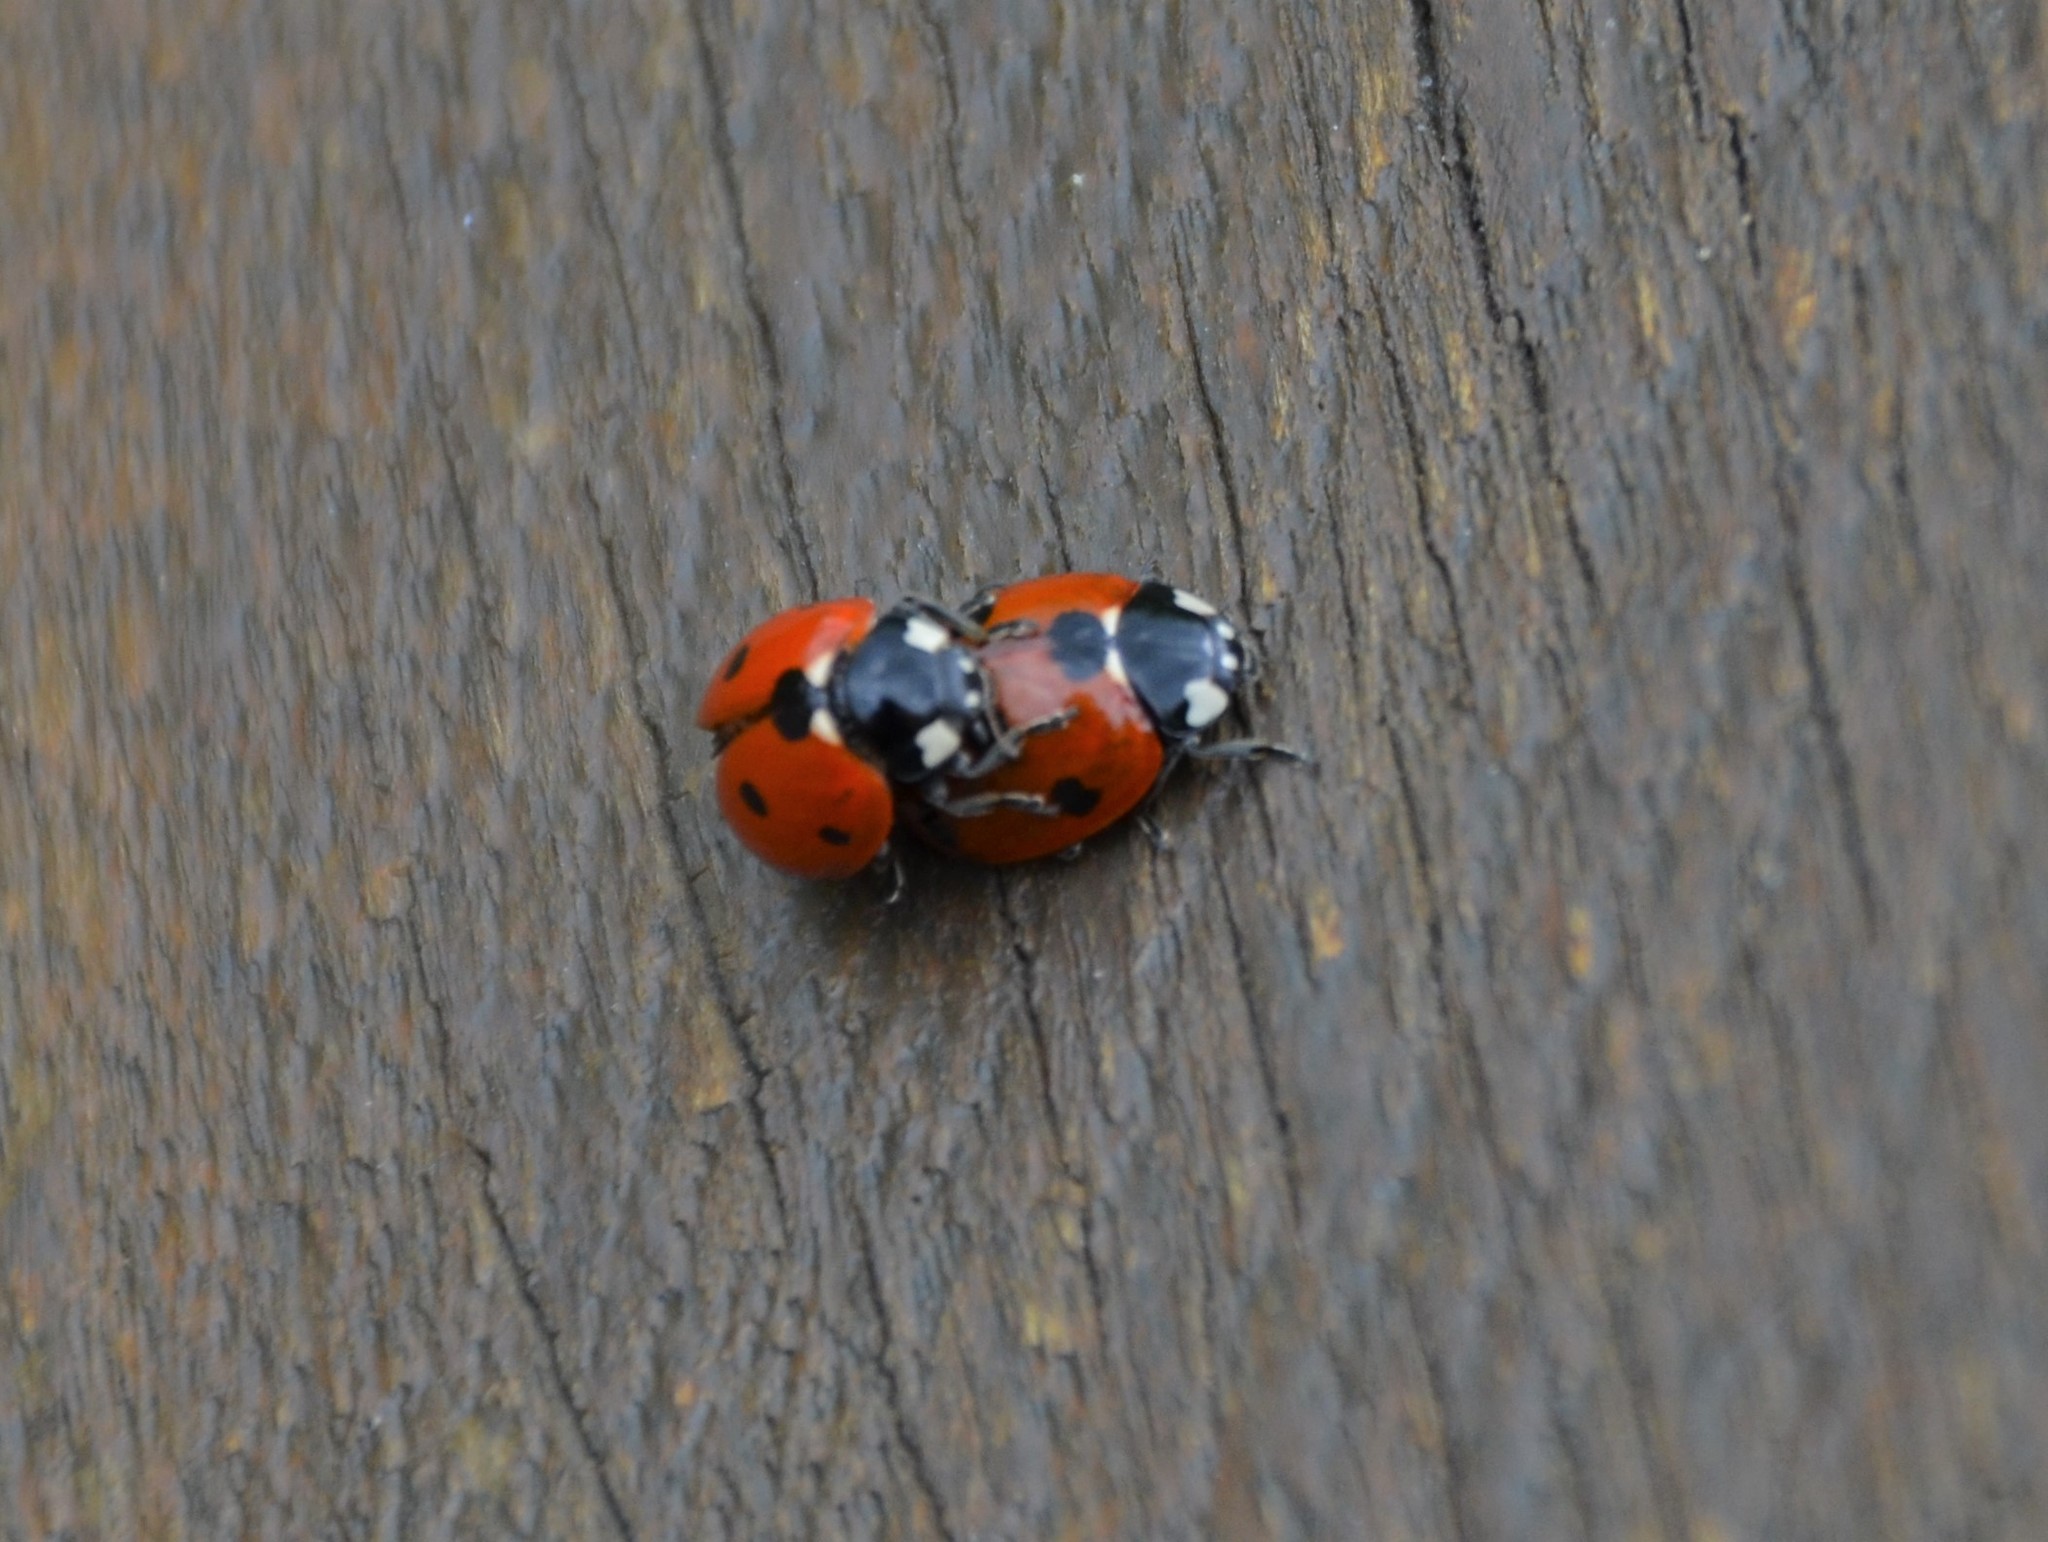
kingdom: Animalia
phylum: Arthropoda
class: Insecta
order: Coleoptera
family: Coccinellidae
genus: Coccinella
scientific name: Coccinella septempunctata
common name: Sevenspotted lady beetle
